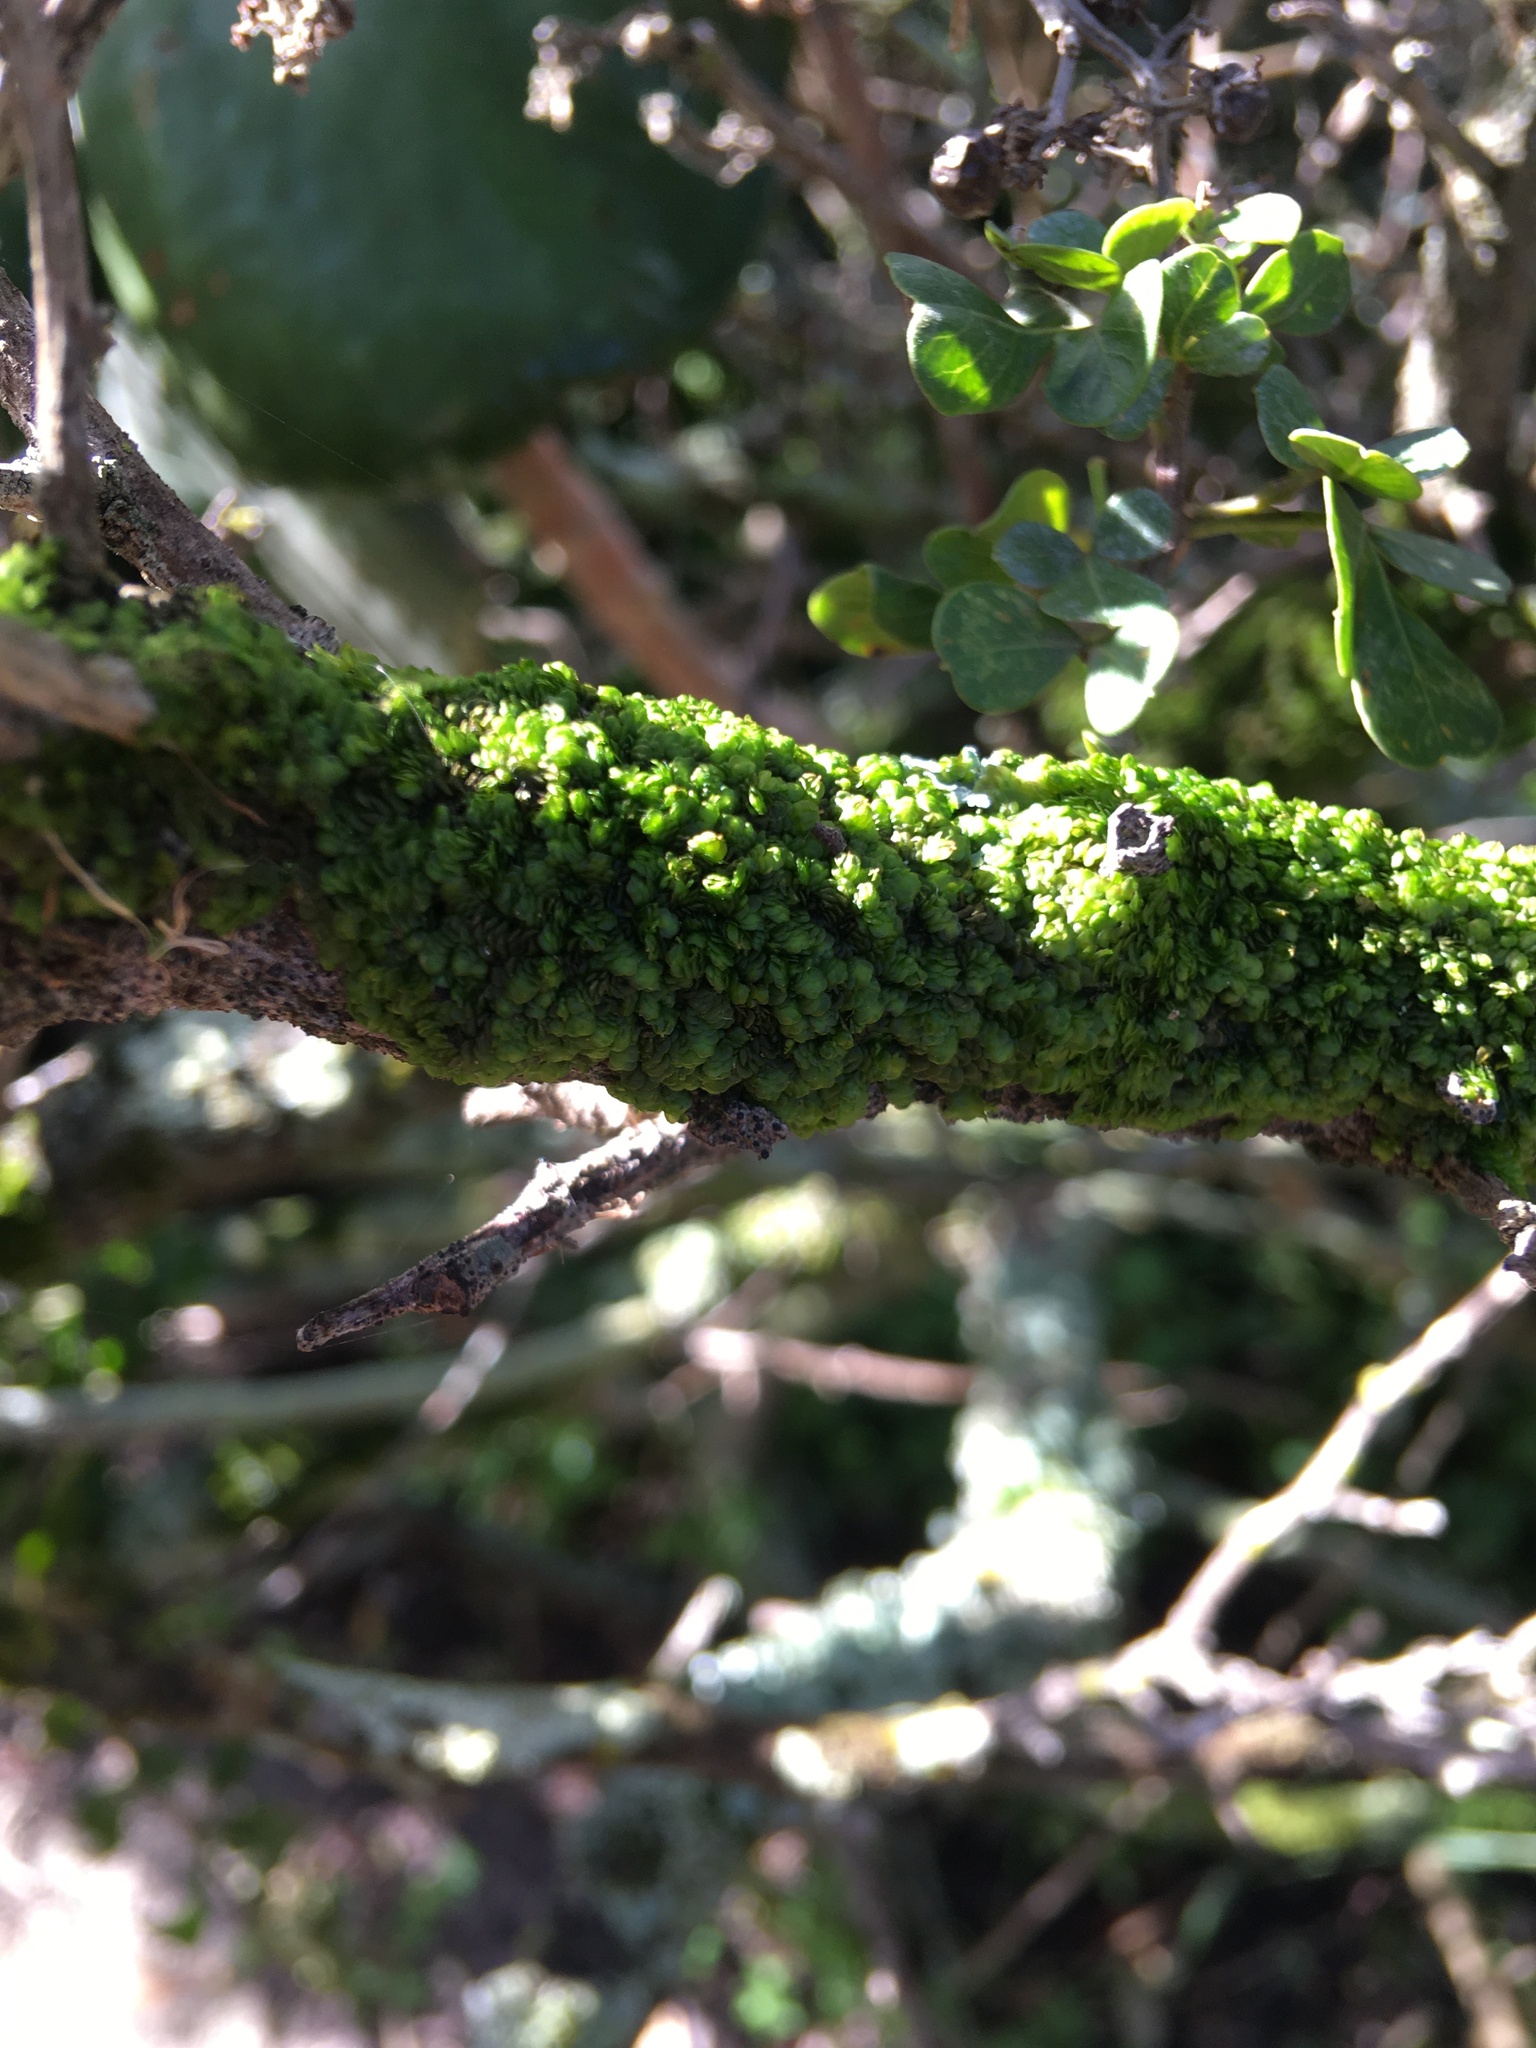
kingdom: Plantae
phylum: Marchantiophyta
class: Jungermanniopsida
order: Porellales
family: Frullaniaceae
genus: Frullania
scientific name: Frullania lindenbergii
